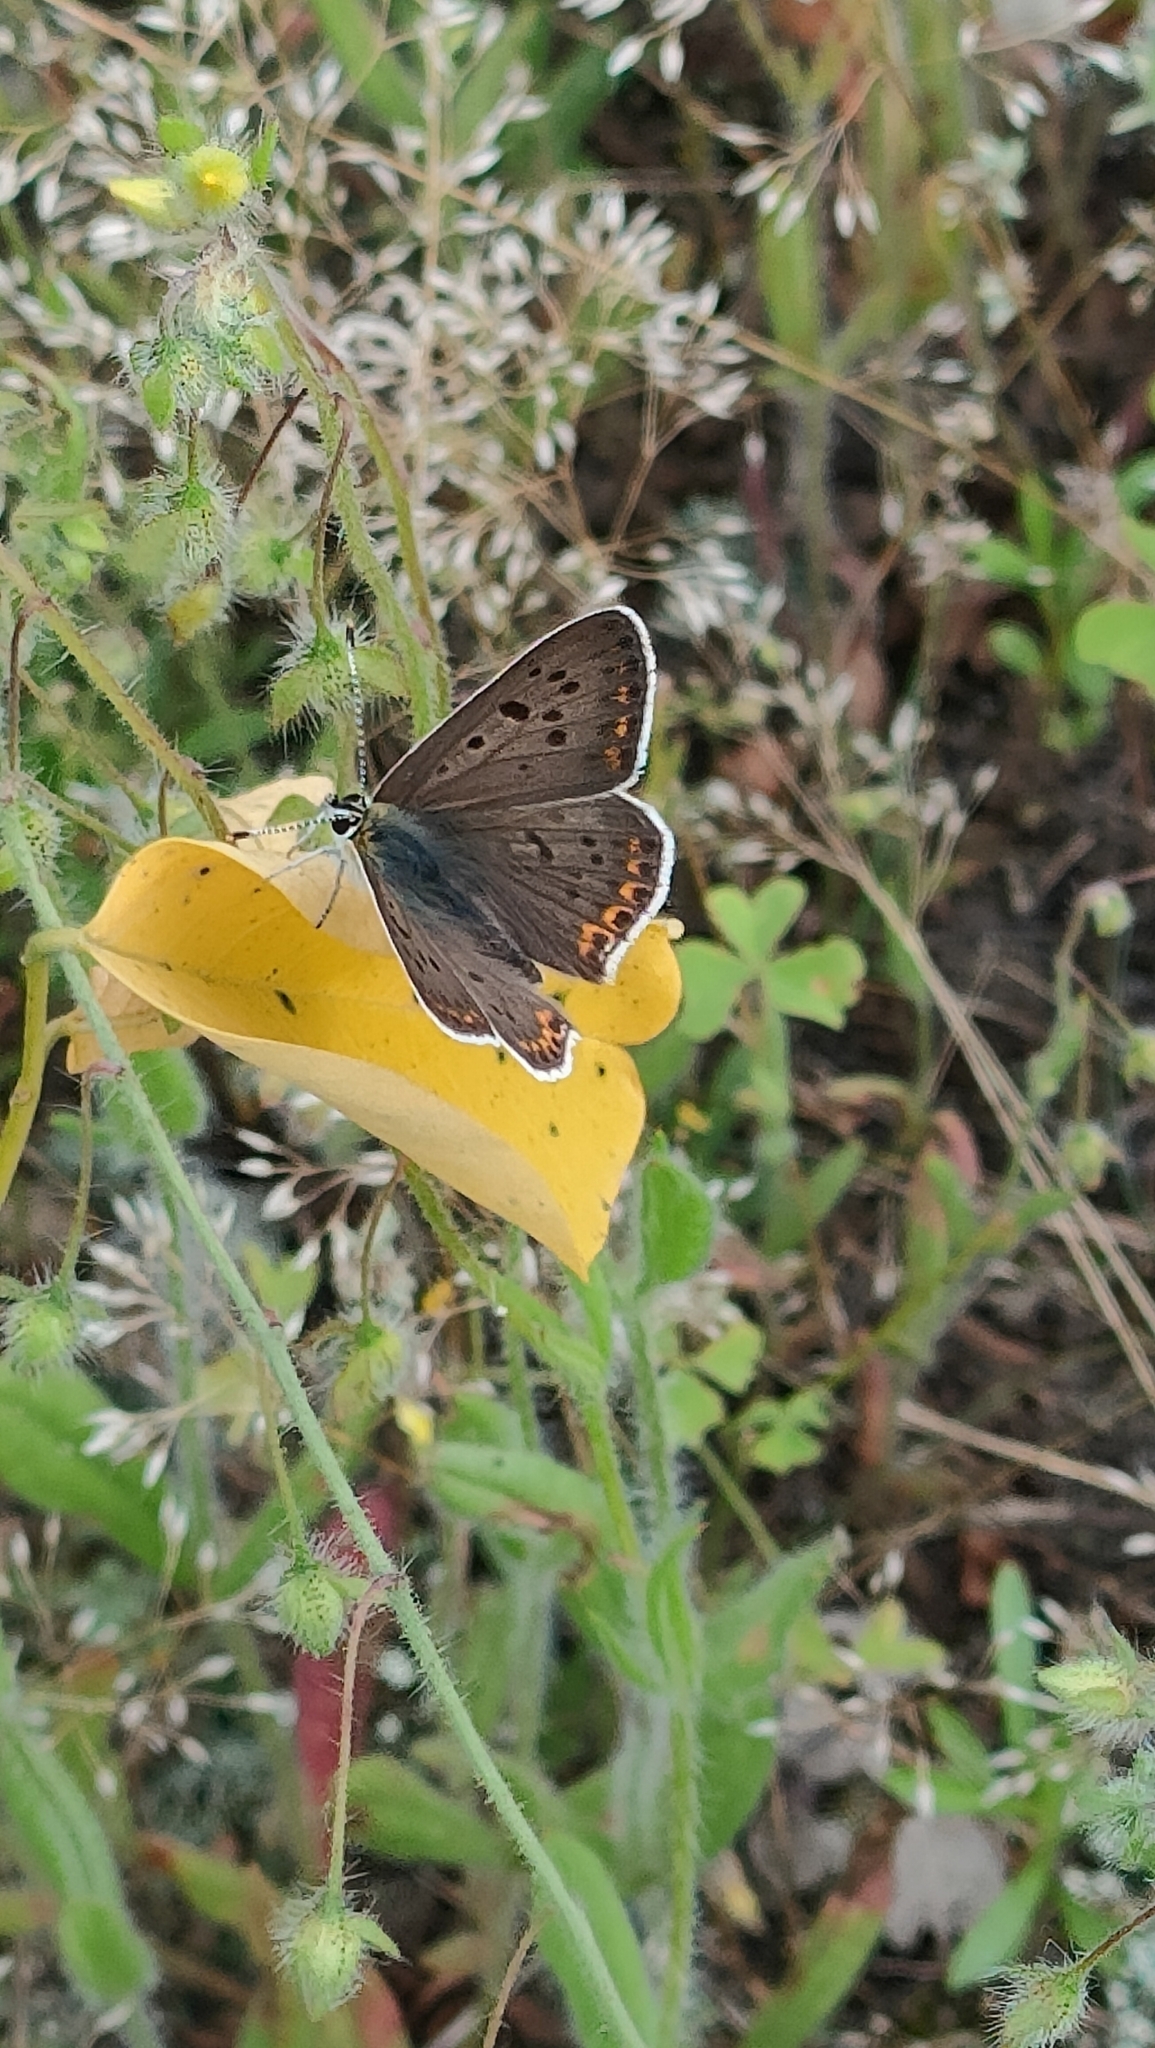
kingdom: Animalia
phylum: Arthropoda
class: Insecta
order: Lepidoptera
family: Lycaenidae
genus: Loweia
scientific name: Loweia tityrus
